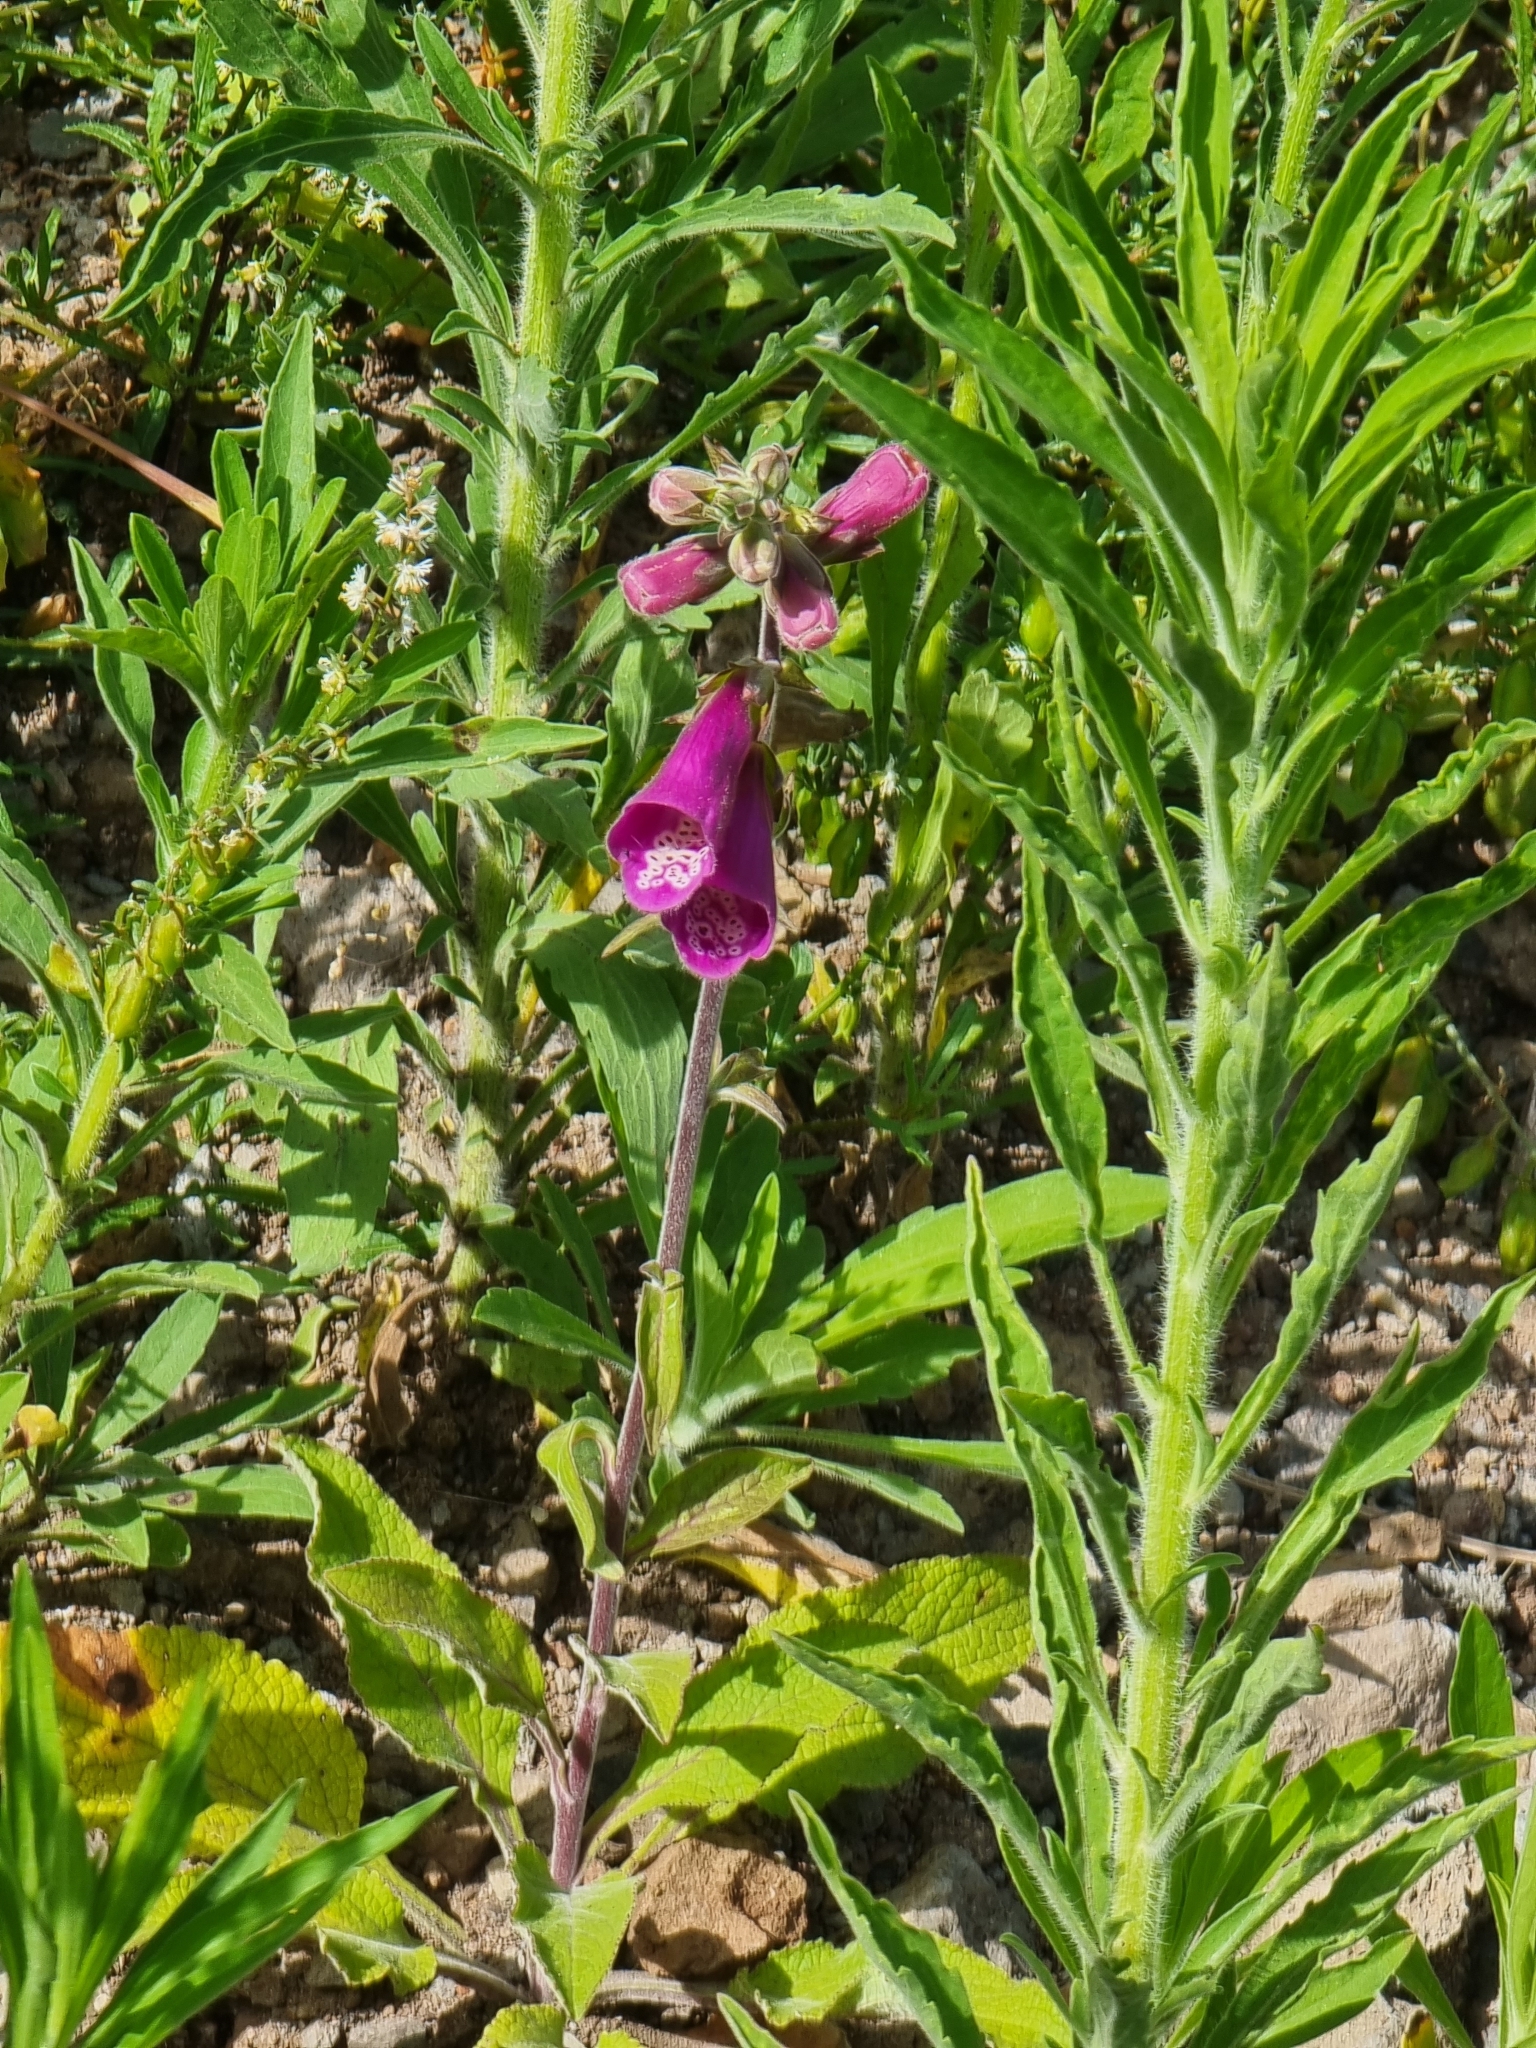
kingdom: Plantae
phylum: Tracheophyta
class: Magnoliopsida
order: Lamiales
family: Plantaginaceae
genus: Digitalis
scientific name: Digitalis purpurea
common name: Foxglove
